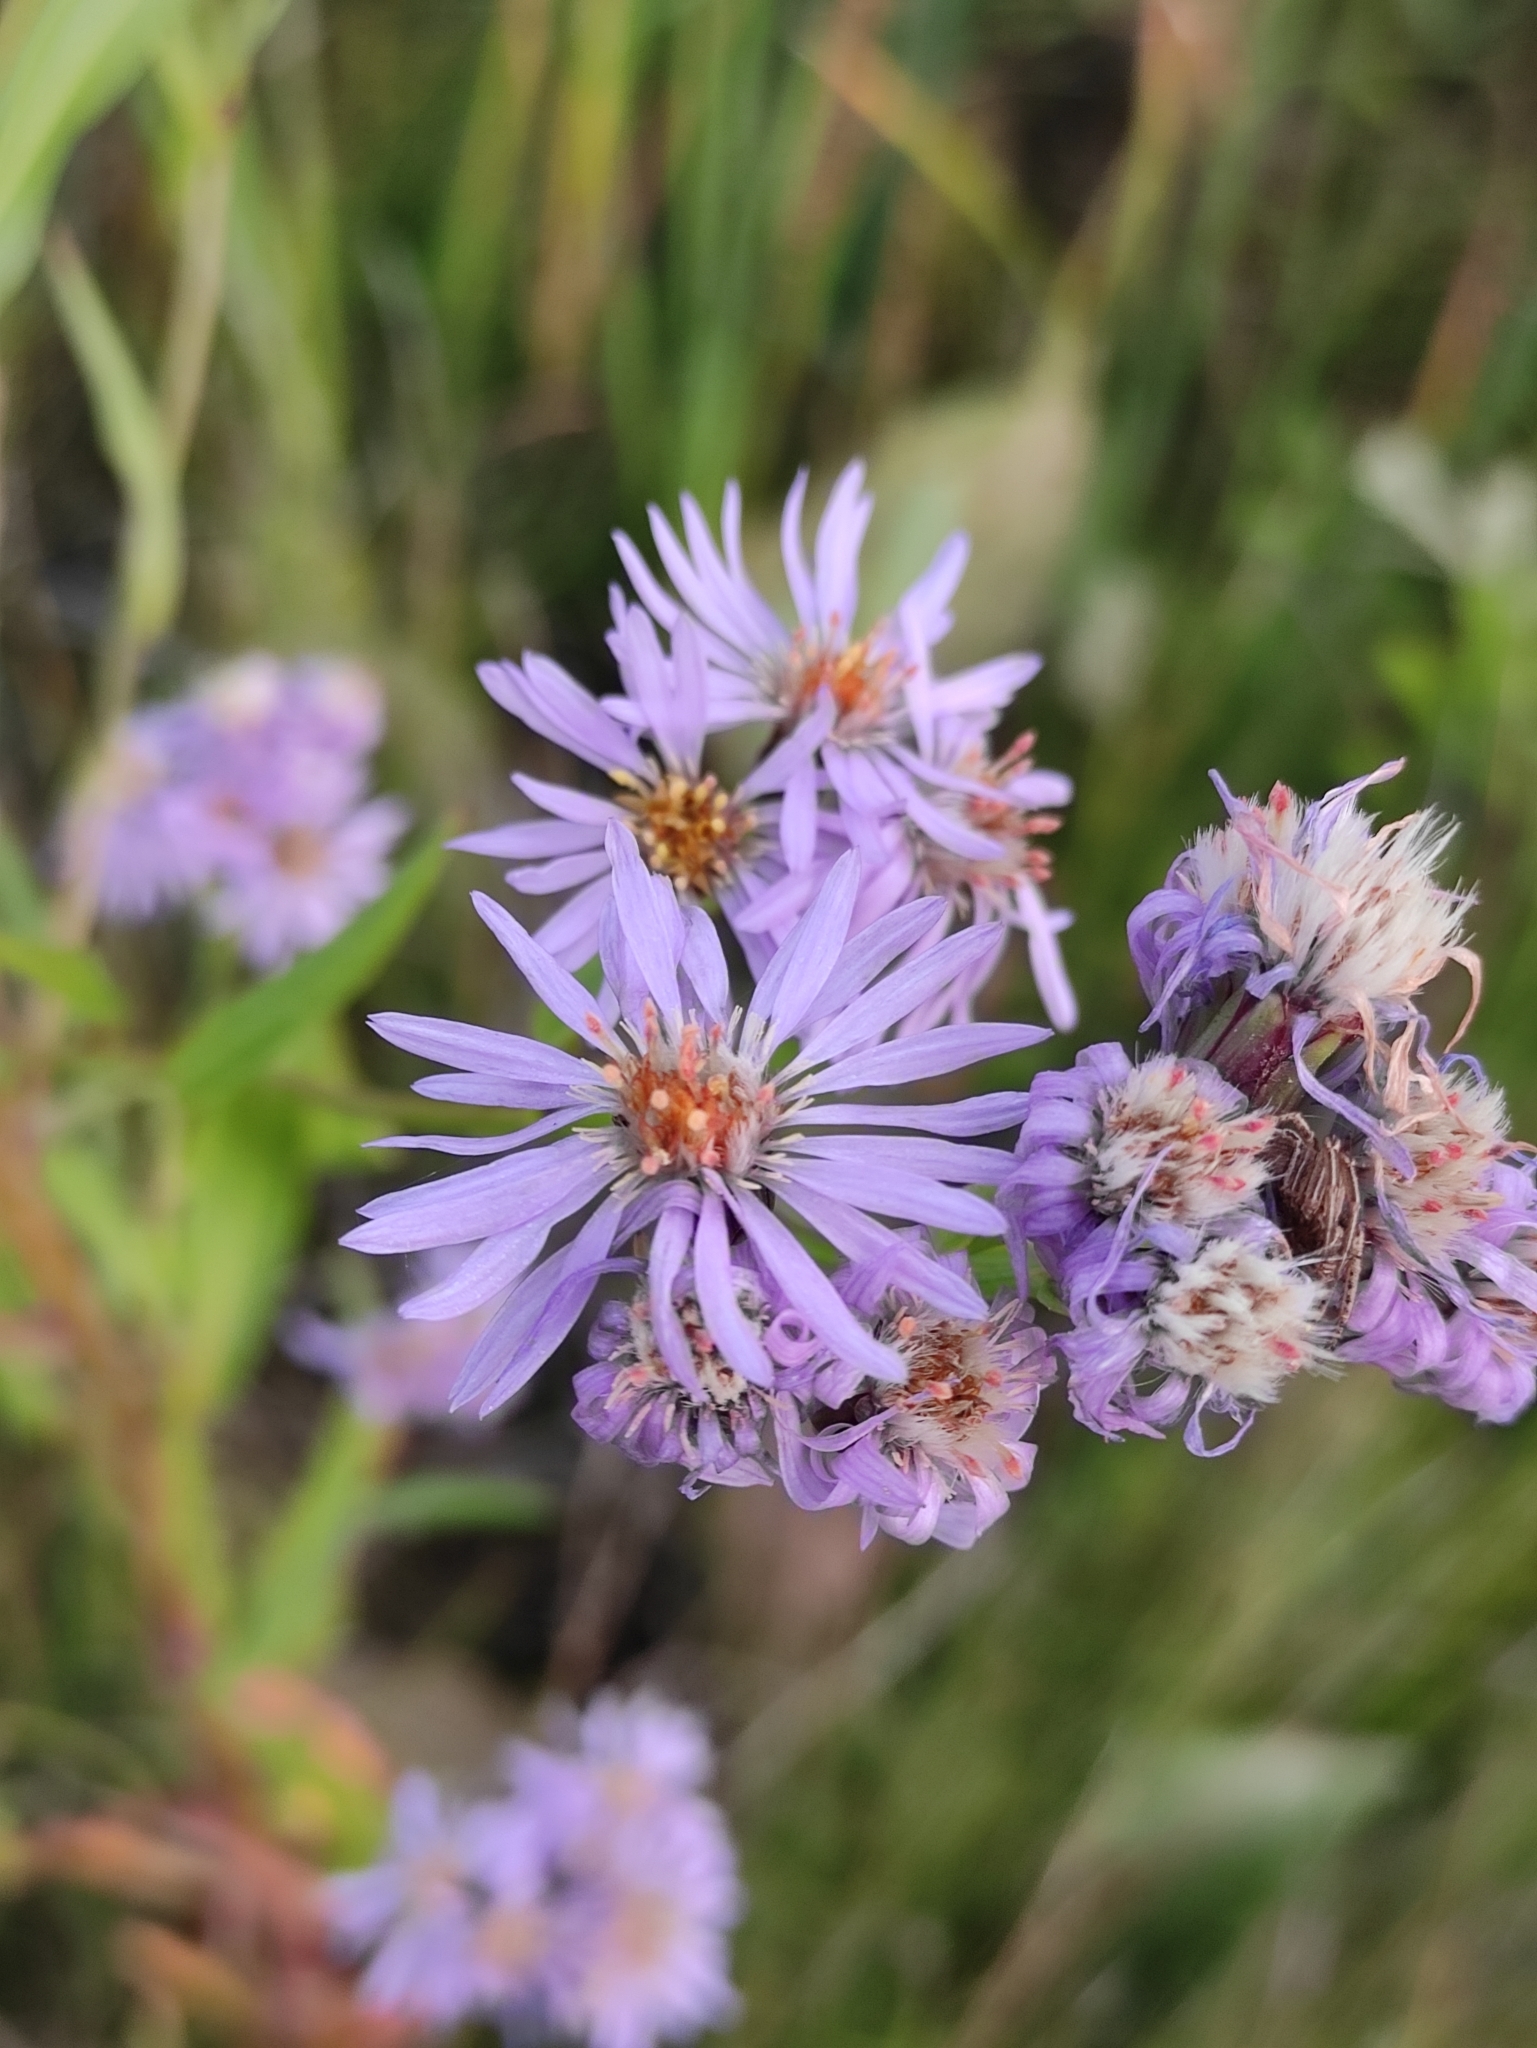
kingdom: Plantae
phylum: Tracheophyta
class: Magnoliopsida
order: Asterales
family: Asteraceae
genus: Tripolium
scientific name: Tripolium pannonicum
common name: Sea aster
